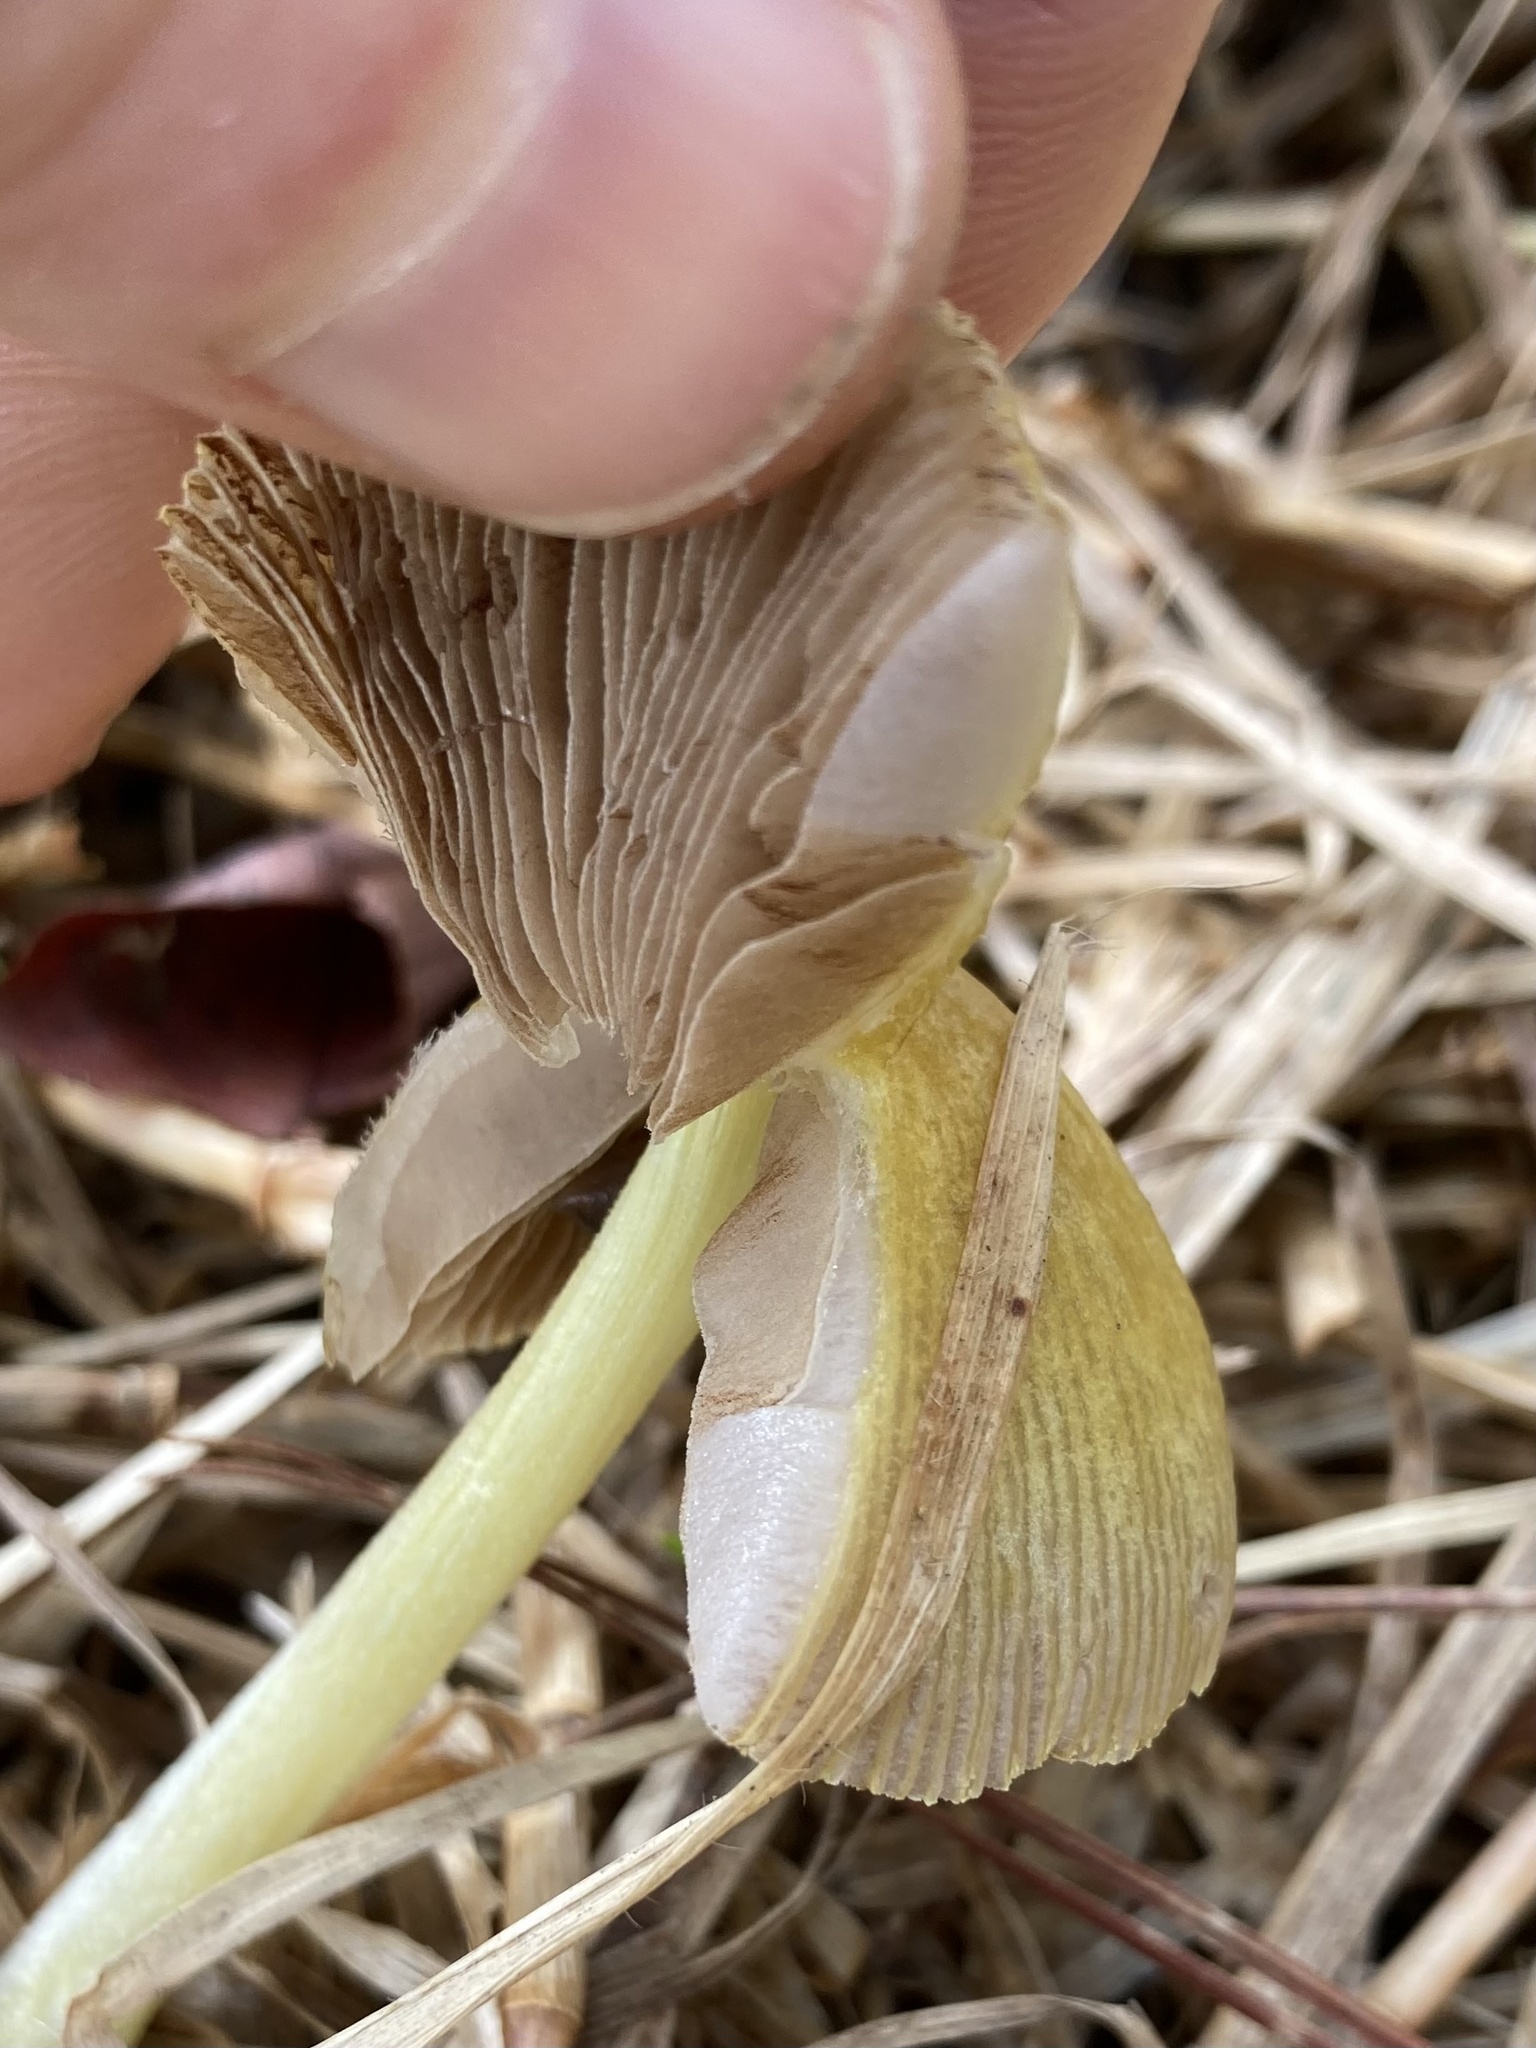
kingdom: Fungi
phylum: Basidiomycota
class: Agaricomycetes
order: Agaricales
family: Bolbitiaceae
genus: Bolbitius
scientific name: Bolbitius titubans
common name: Yellow fieldcap
